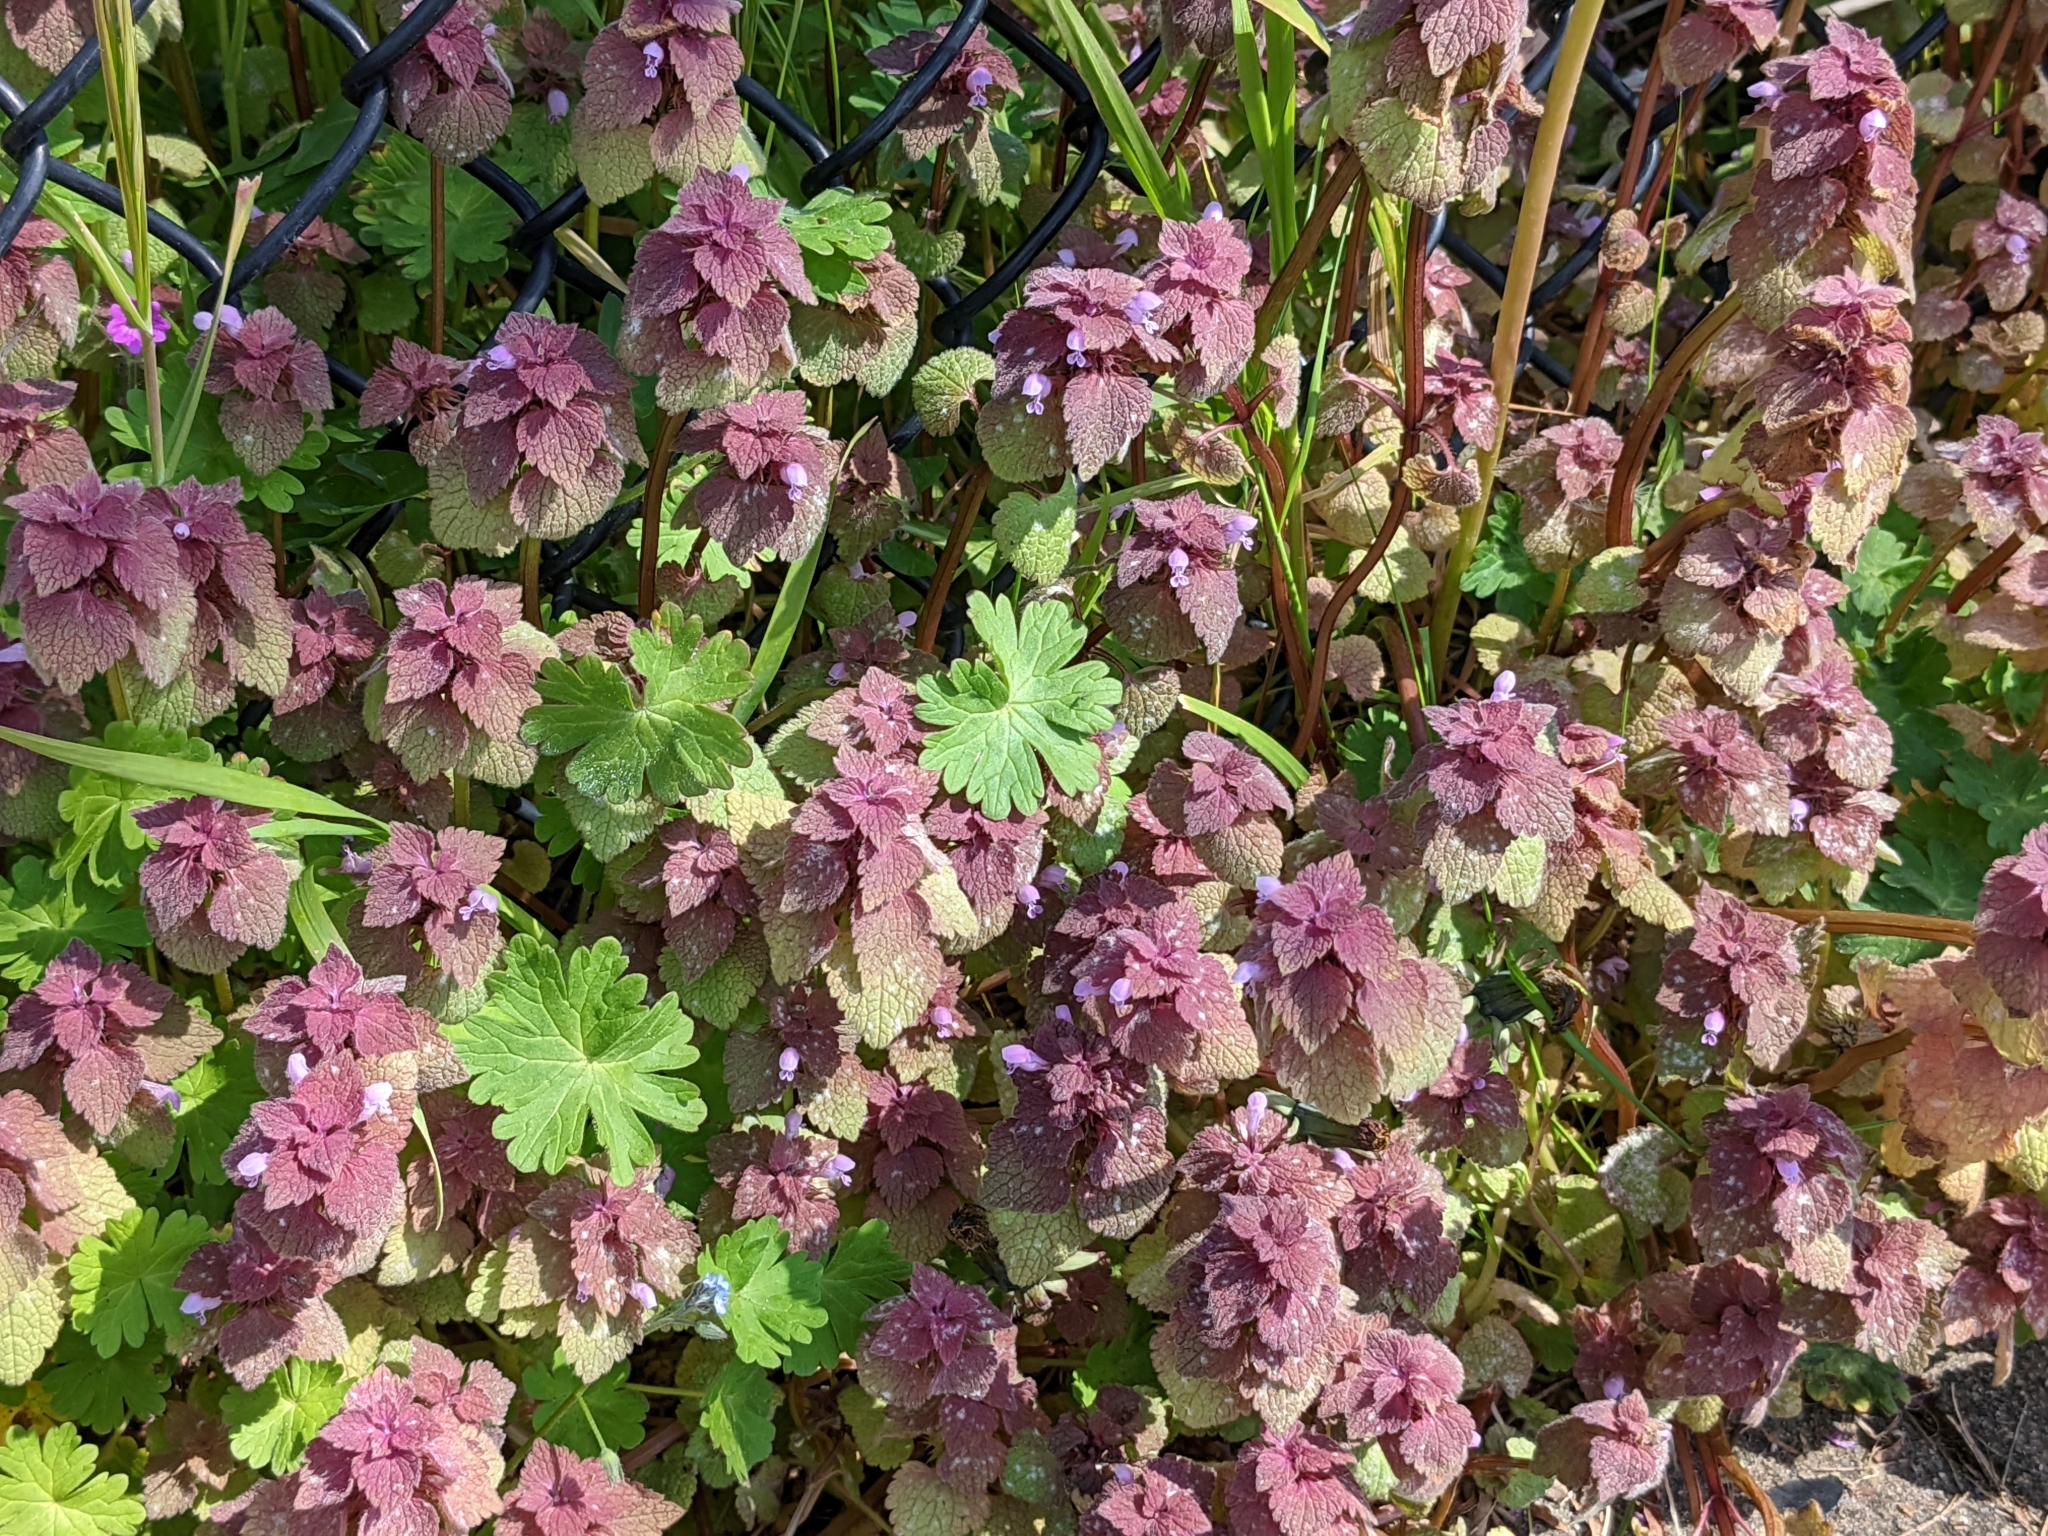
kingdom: Plantae
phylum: Tracheophyta
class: Magnoliopsida
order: Lamiales
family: Lamiaceae
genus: Lamium
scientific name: Lamium purpureum
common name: Red dead-nettle
